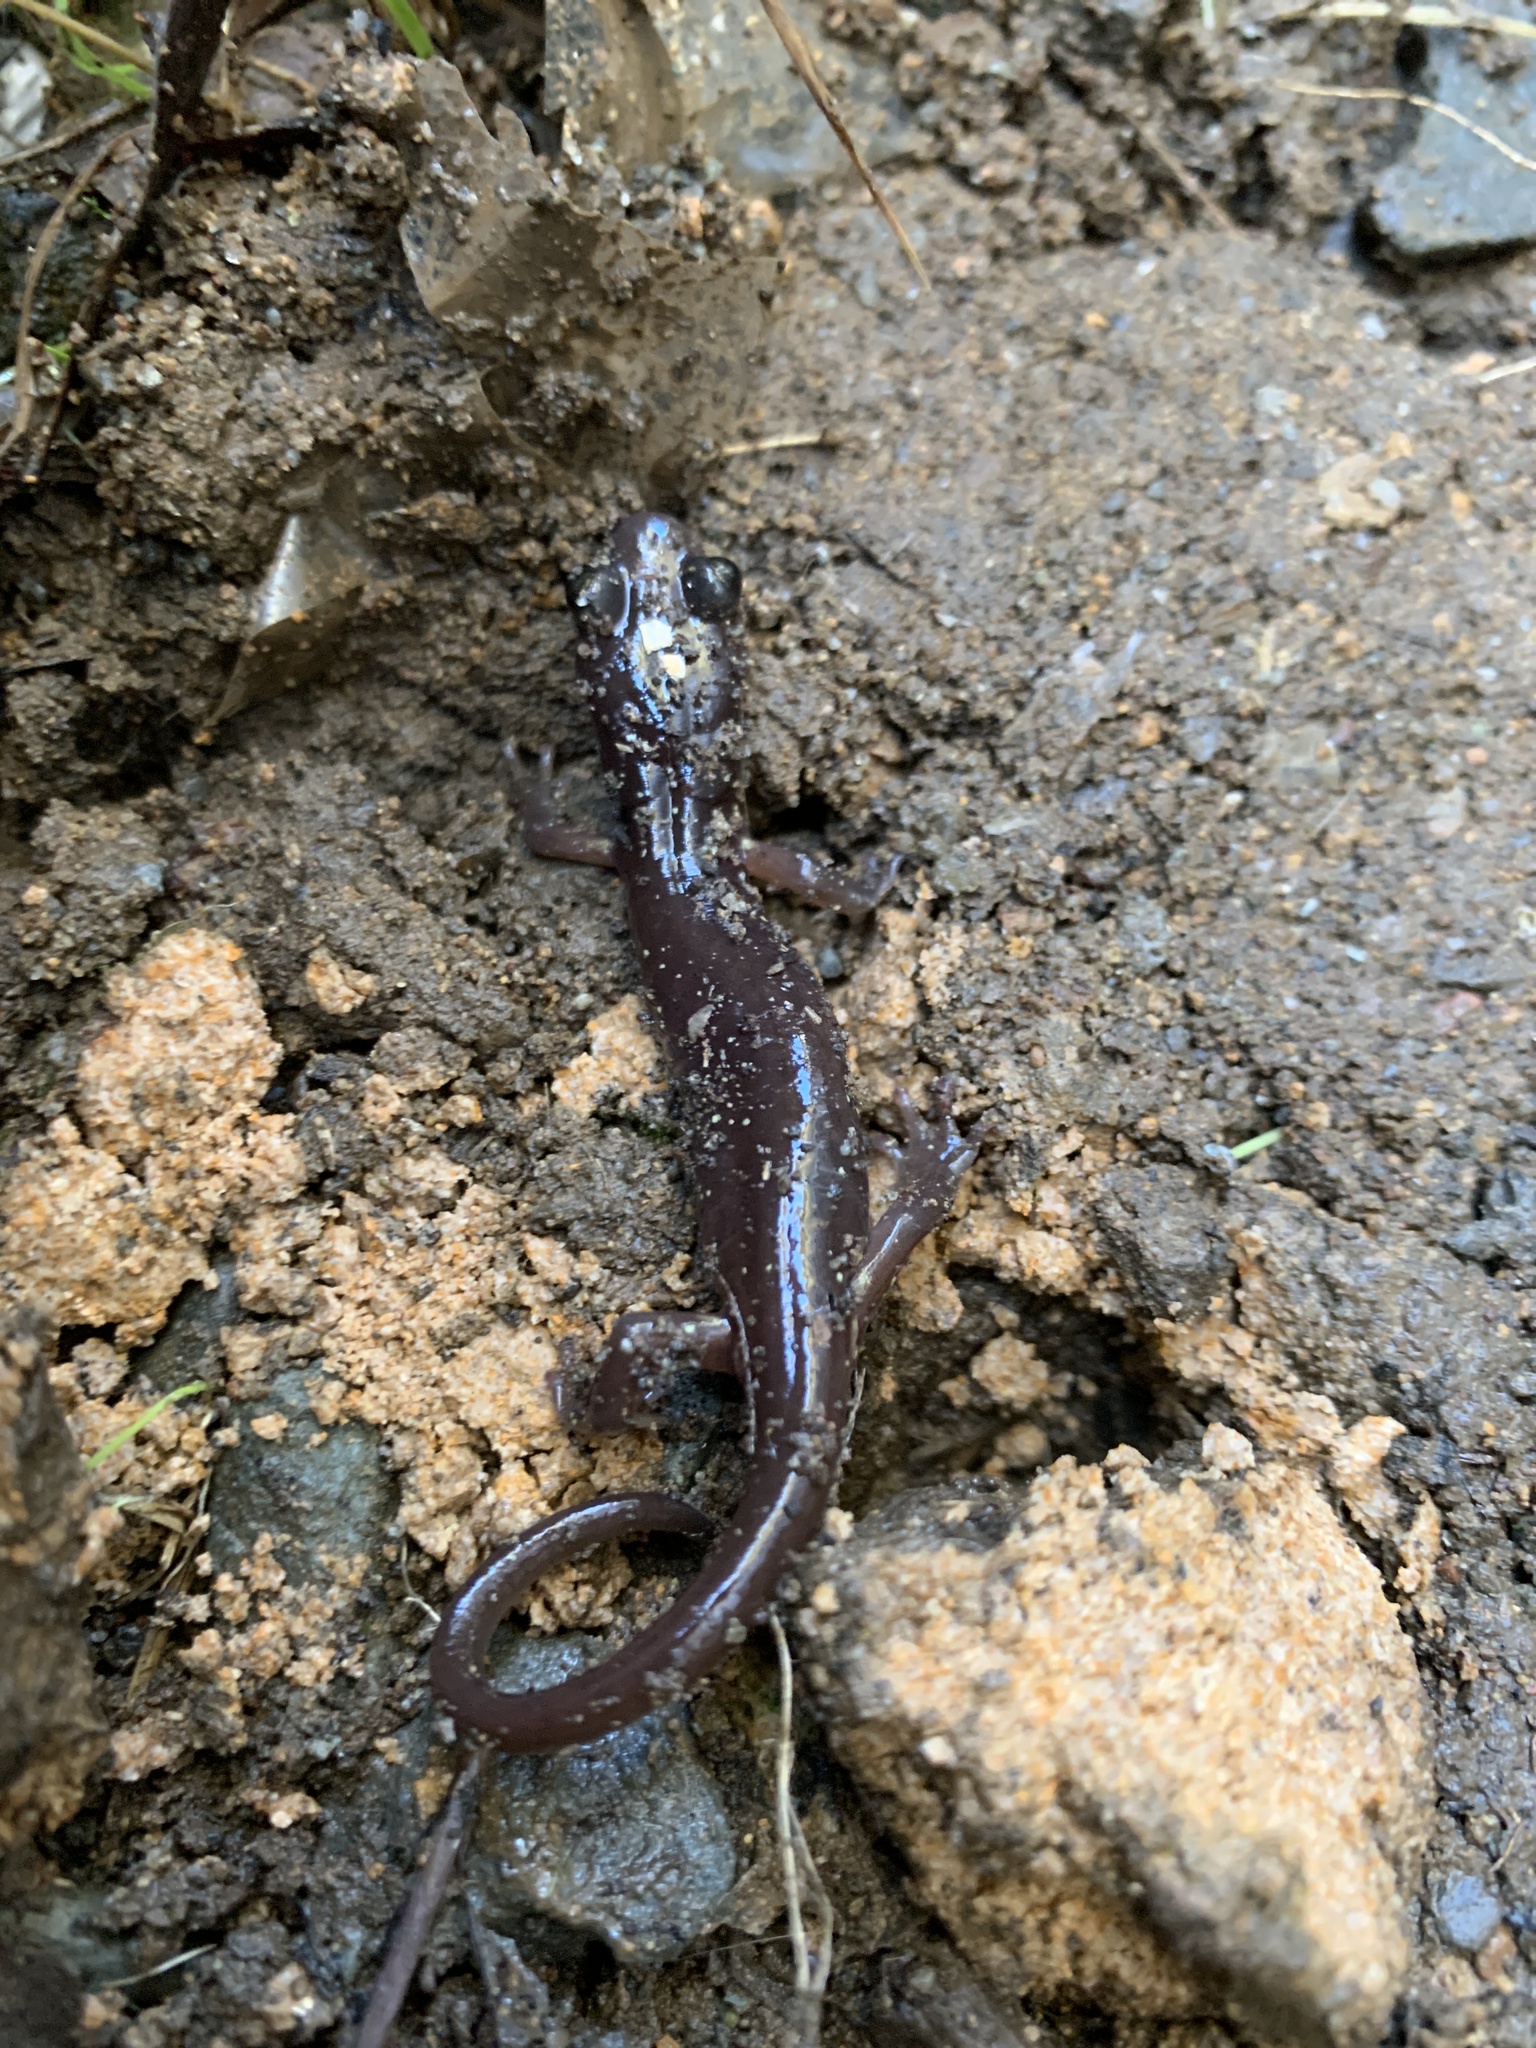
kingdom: Animalia
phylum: Chordata
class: Amphibia
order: Caudata
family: Plethodontidae
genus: Aneides
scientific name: Aneides lugubris
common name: Arboreal salamander
